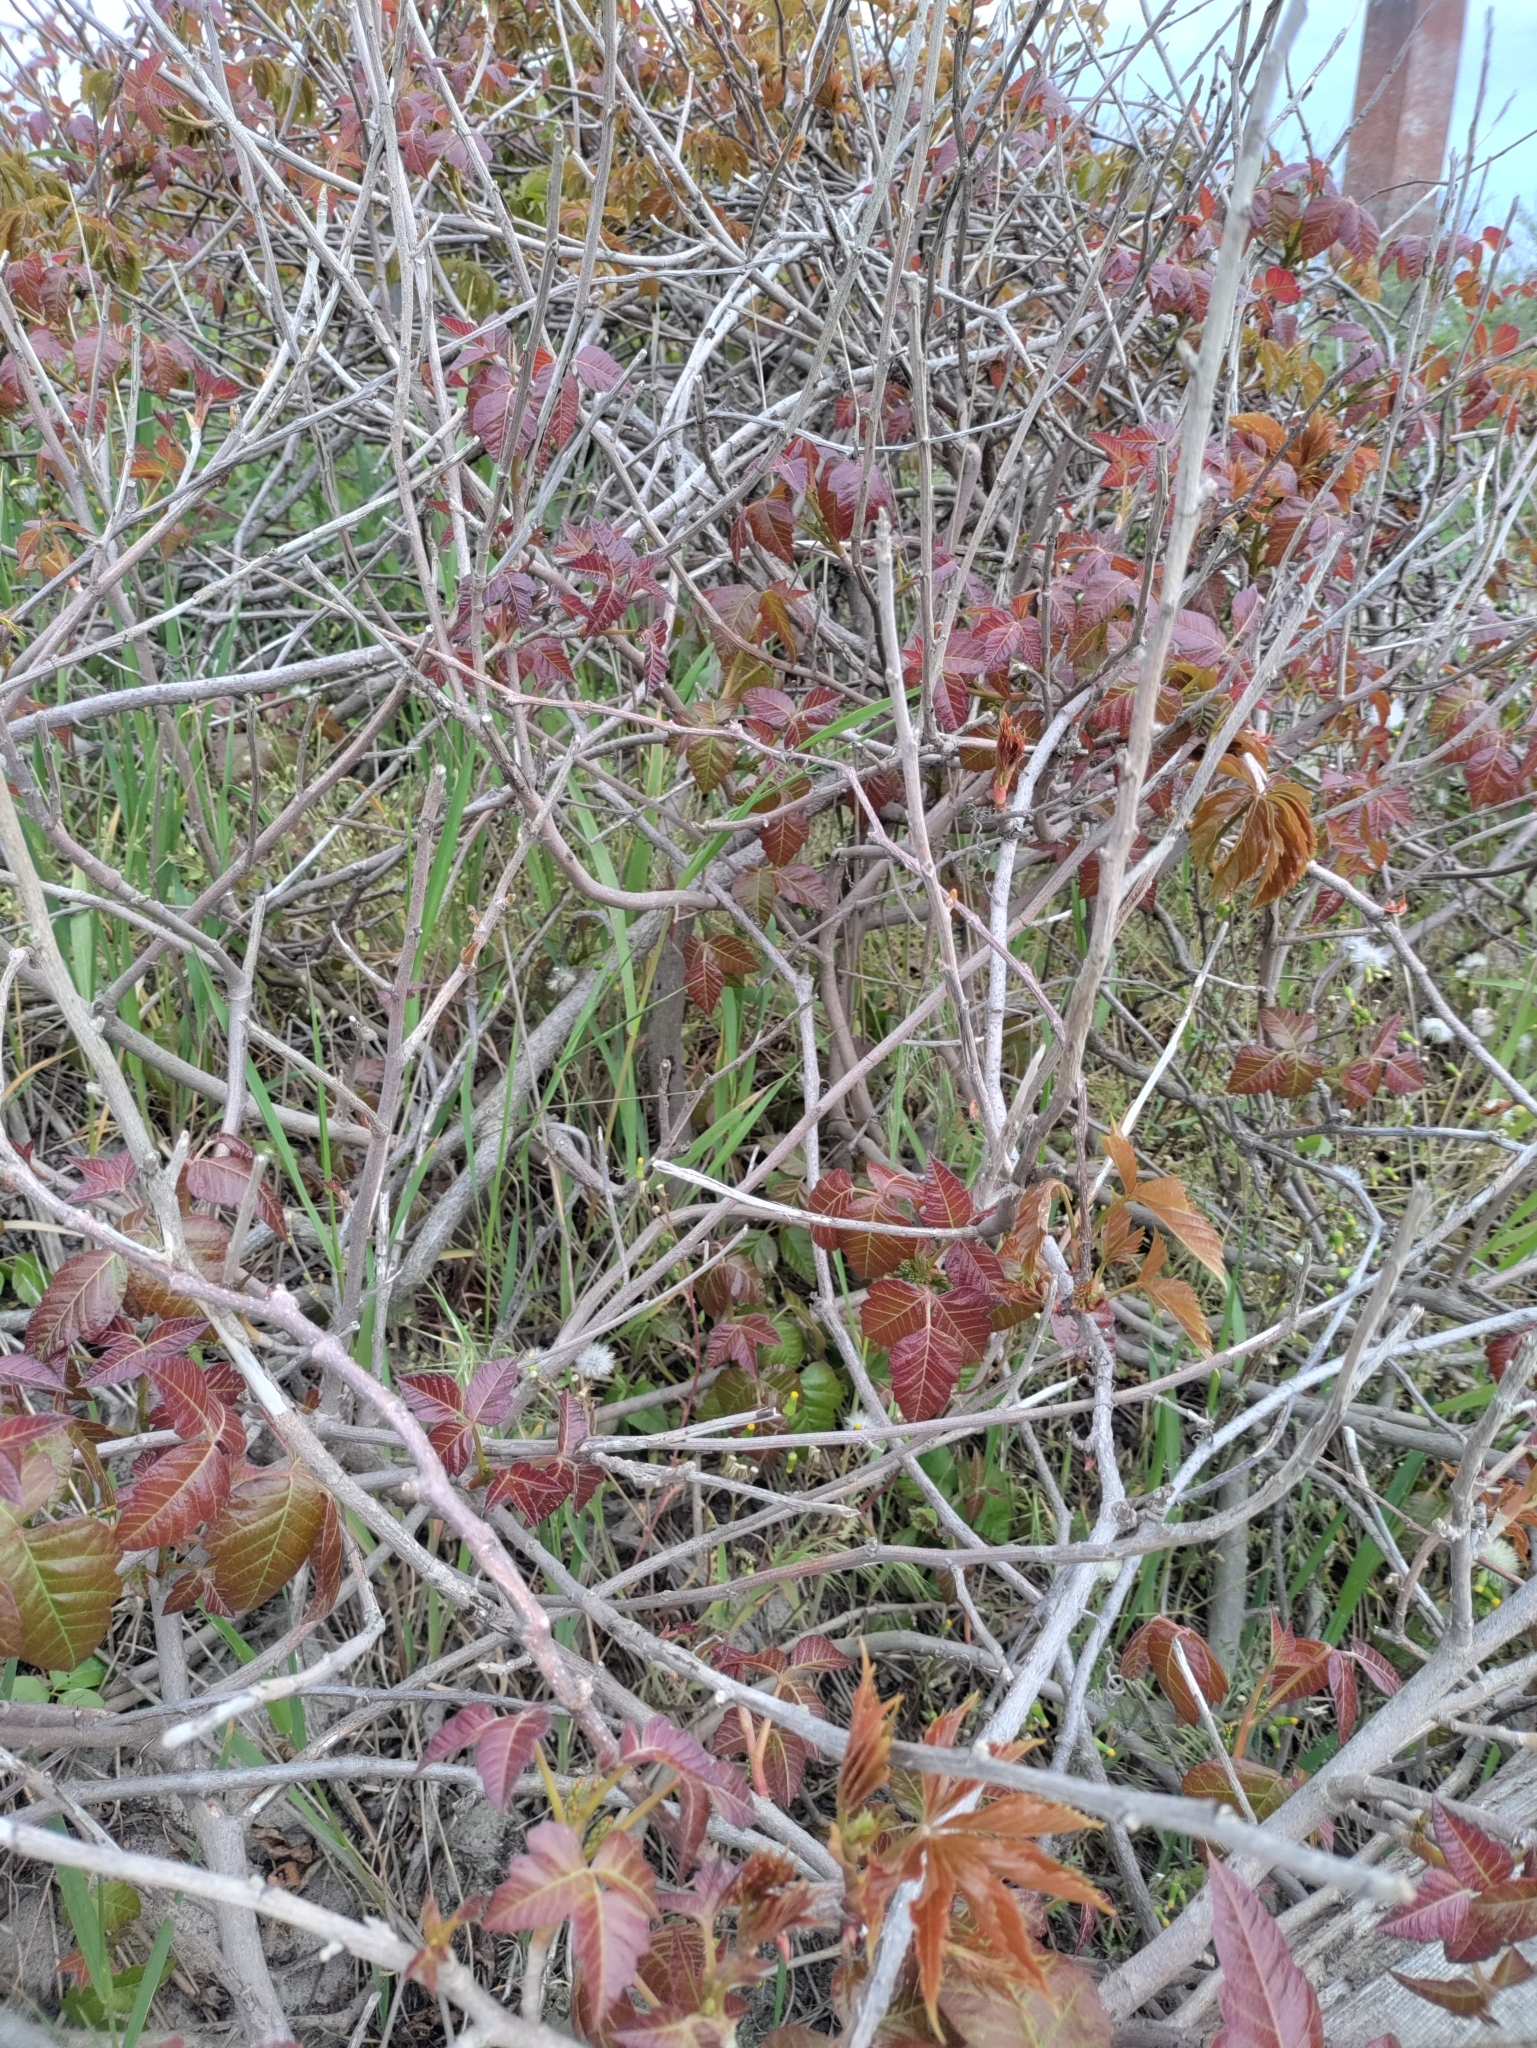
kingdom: Plantae
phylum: Tracheophyta
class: Magnoliopsida
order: Sapindales
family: Anacardiaceae
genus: Toxicodendron
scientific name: Toxicodendron radicans
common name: Poison ivy
